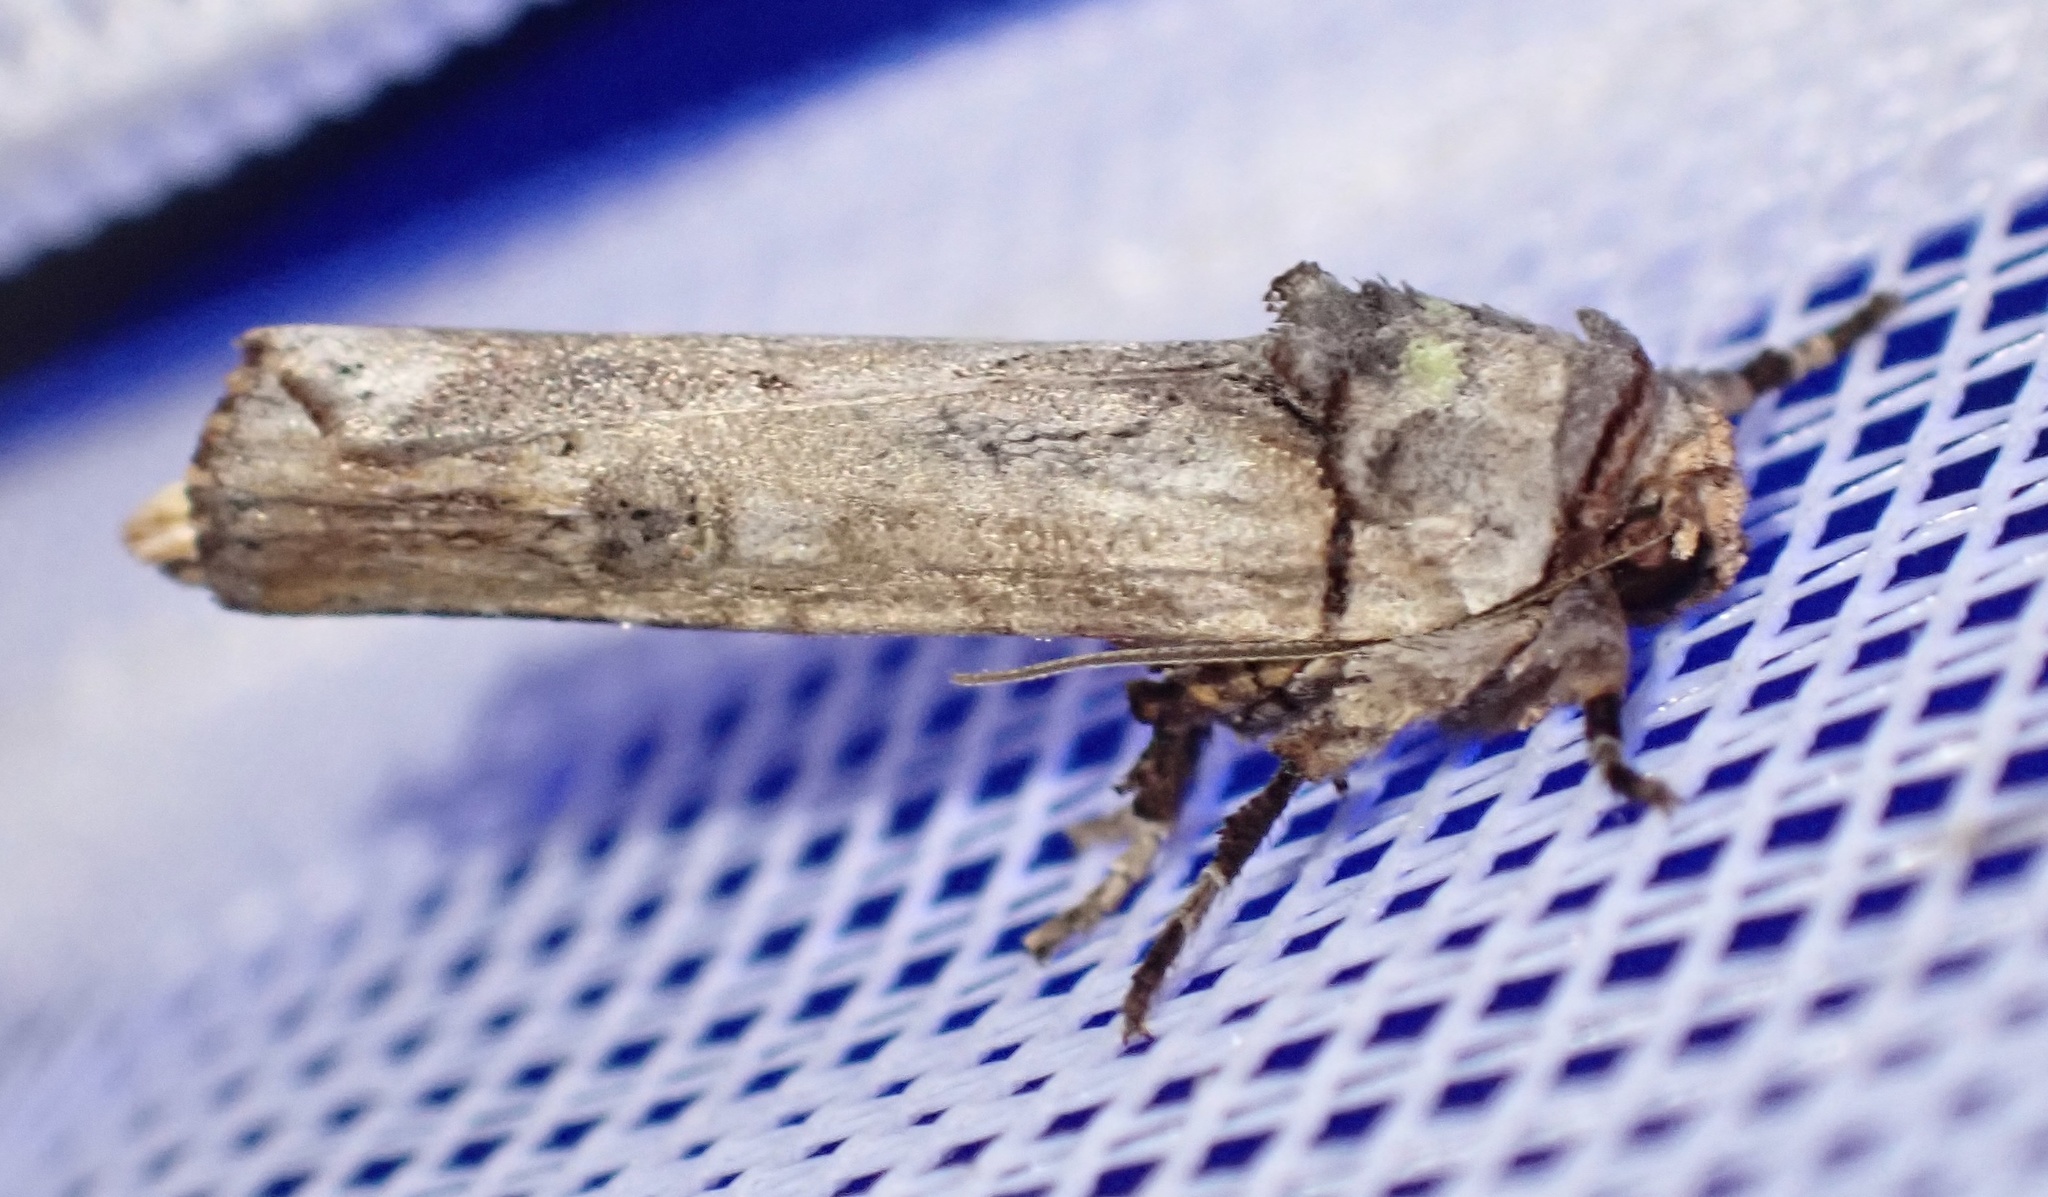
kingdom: Animalia
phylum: Arthropoda
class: Insecta
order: Lepidoptera
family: Noctuidae
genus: Lophotarsia
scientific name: Lophotarsia ochroprocta
